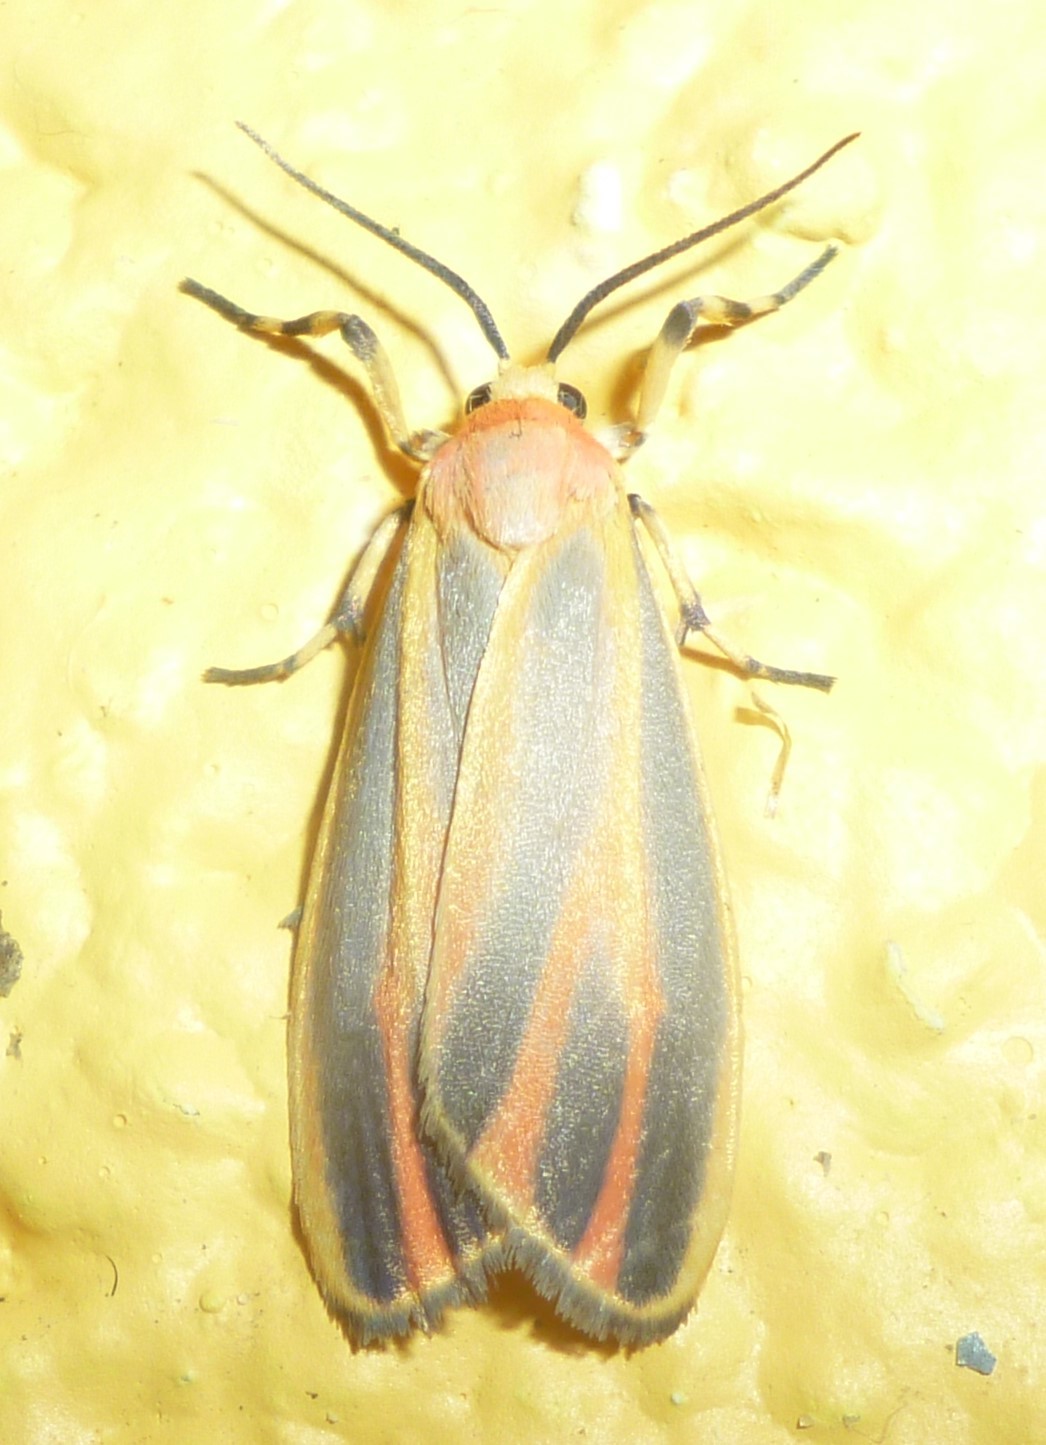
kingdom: Animalia
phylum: Arthropoda
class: Insecta
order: Lepidoptera
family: Erebidae
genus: Hypoprepia
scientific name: Hypoprepia fucosa
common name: Painted lichen moth
